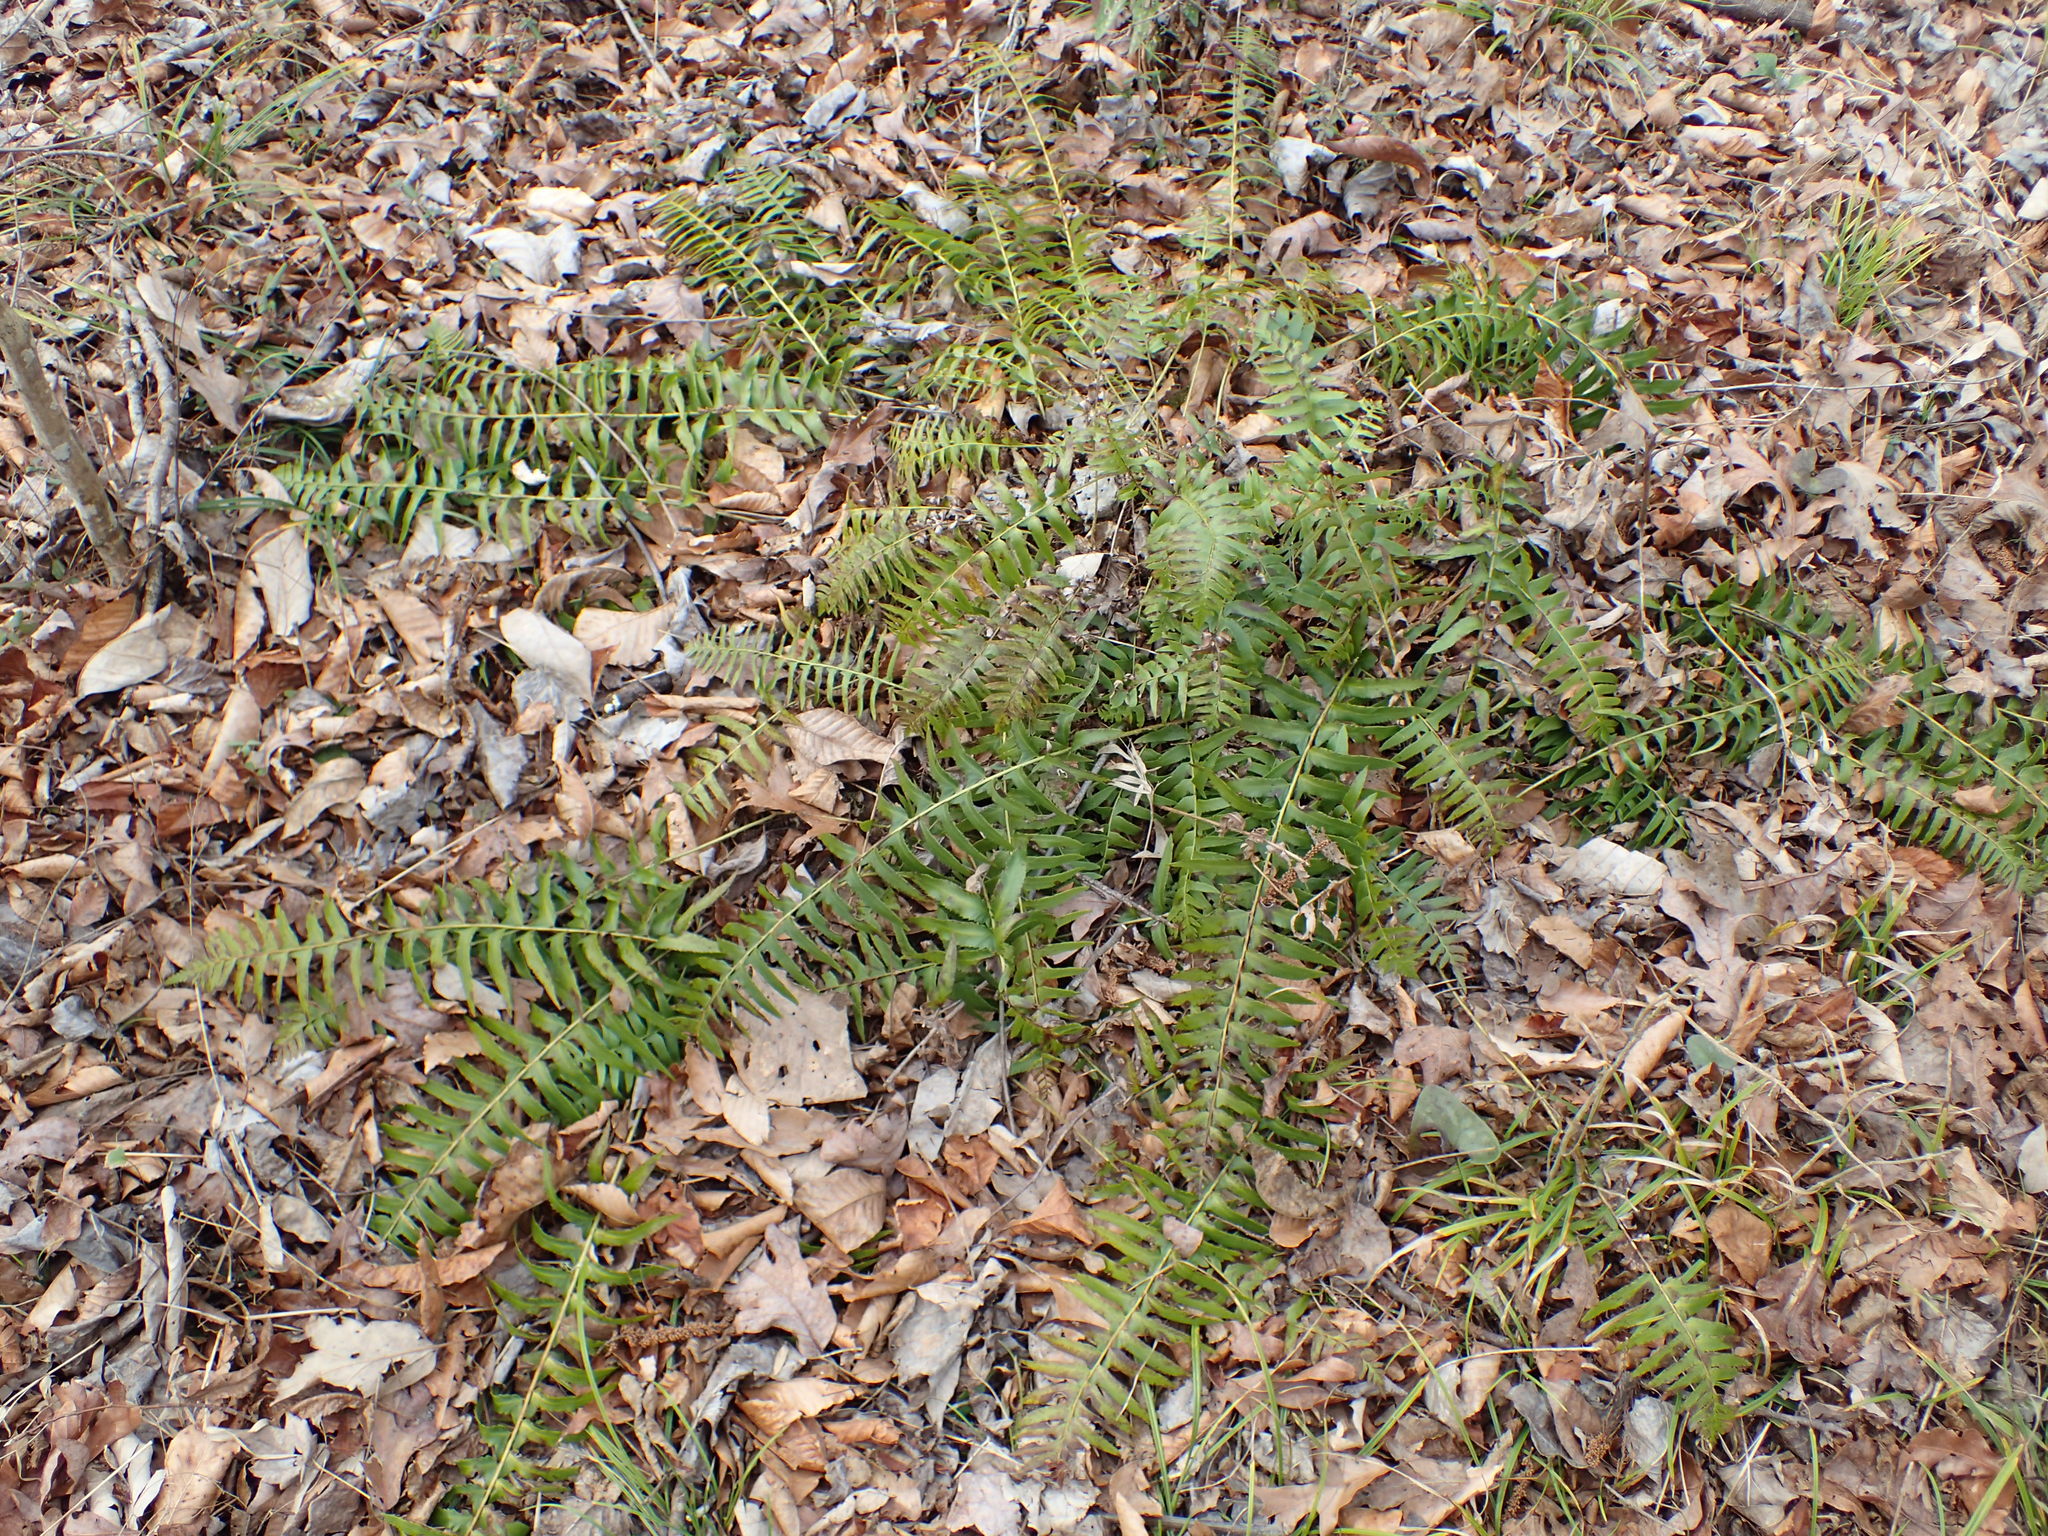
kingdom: Plantae
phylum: Tracheophyta
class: Polypodiopsida
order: Polypodiales
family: Dryopteridaceae
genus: Polystichum
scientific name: Polystichum acrostichoides
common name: Christmas fern
